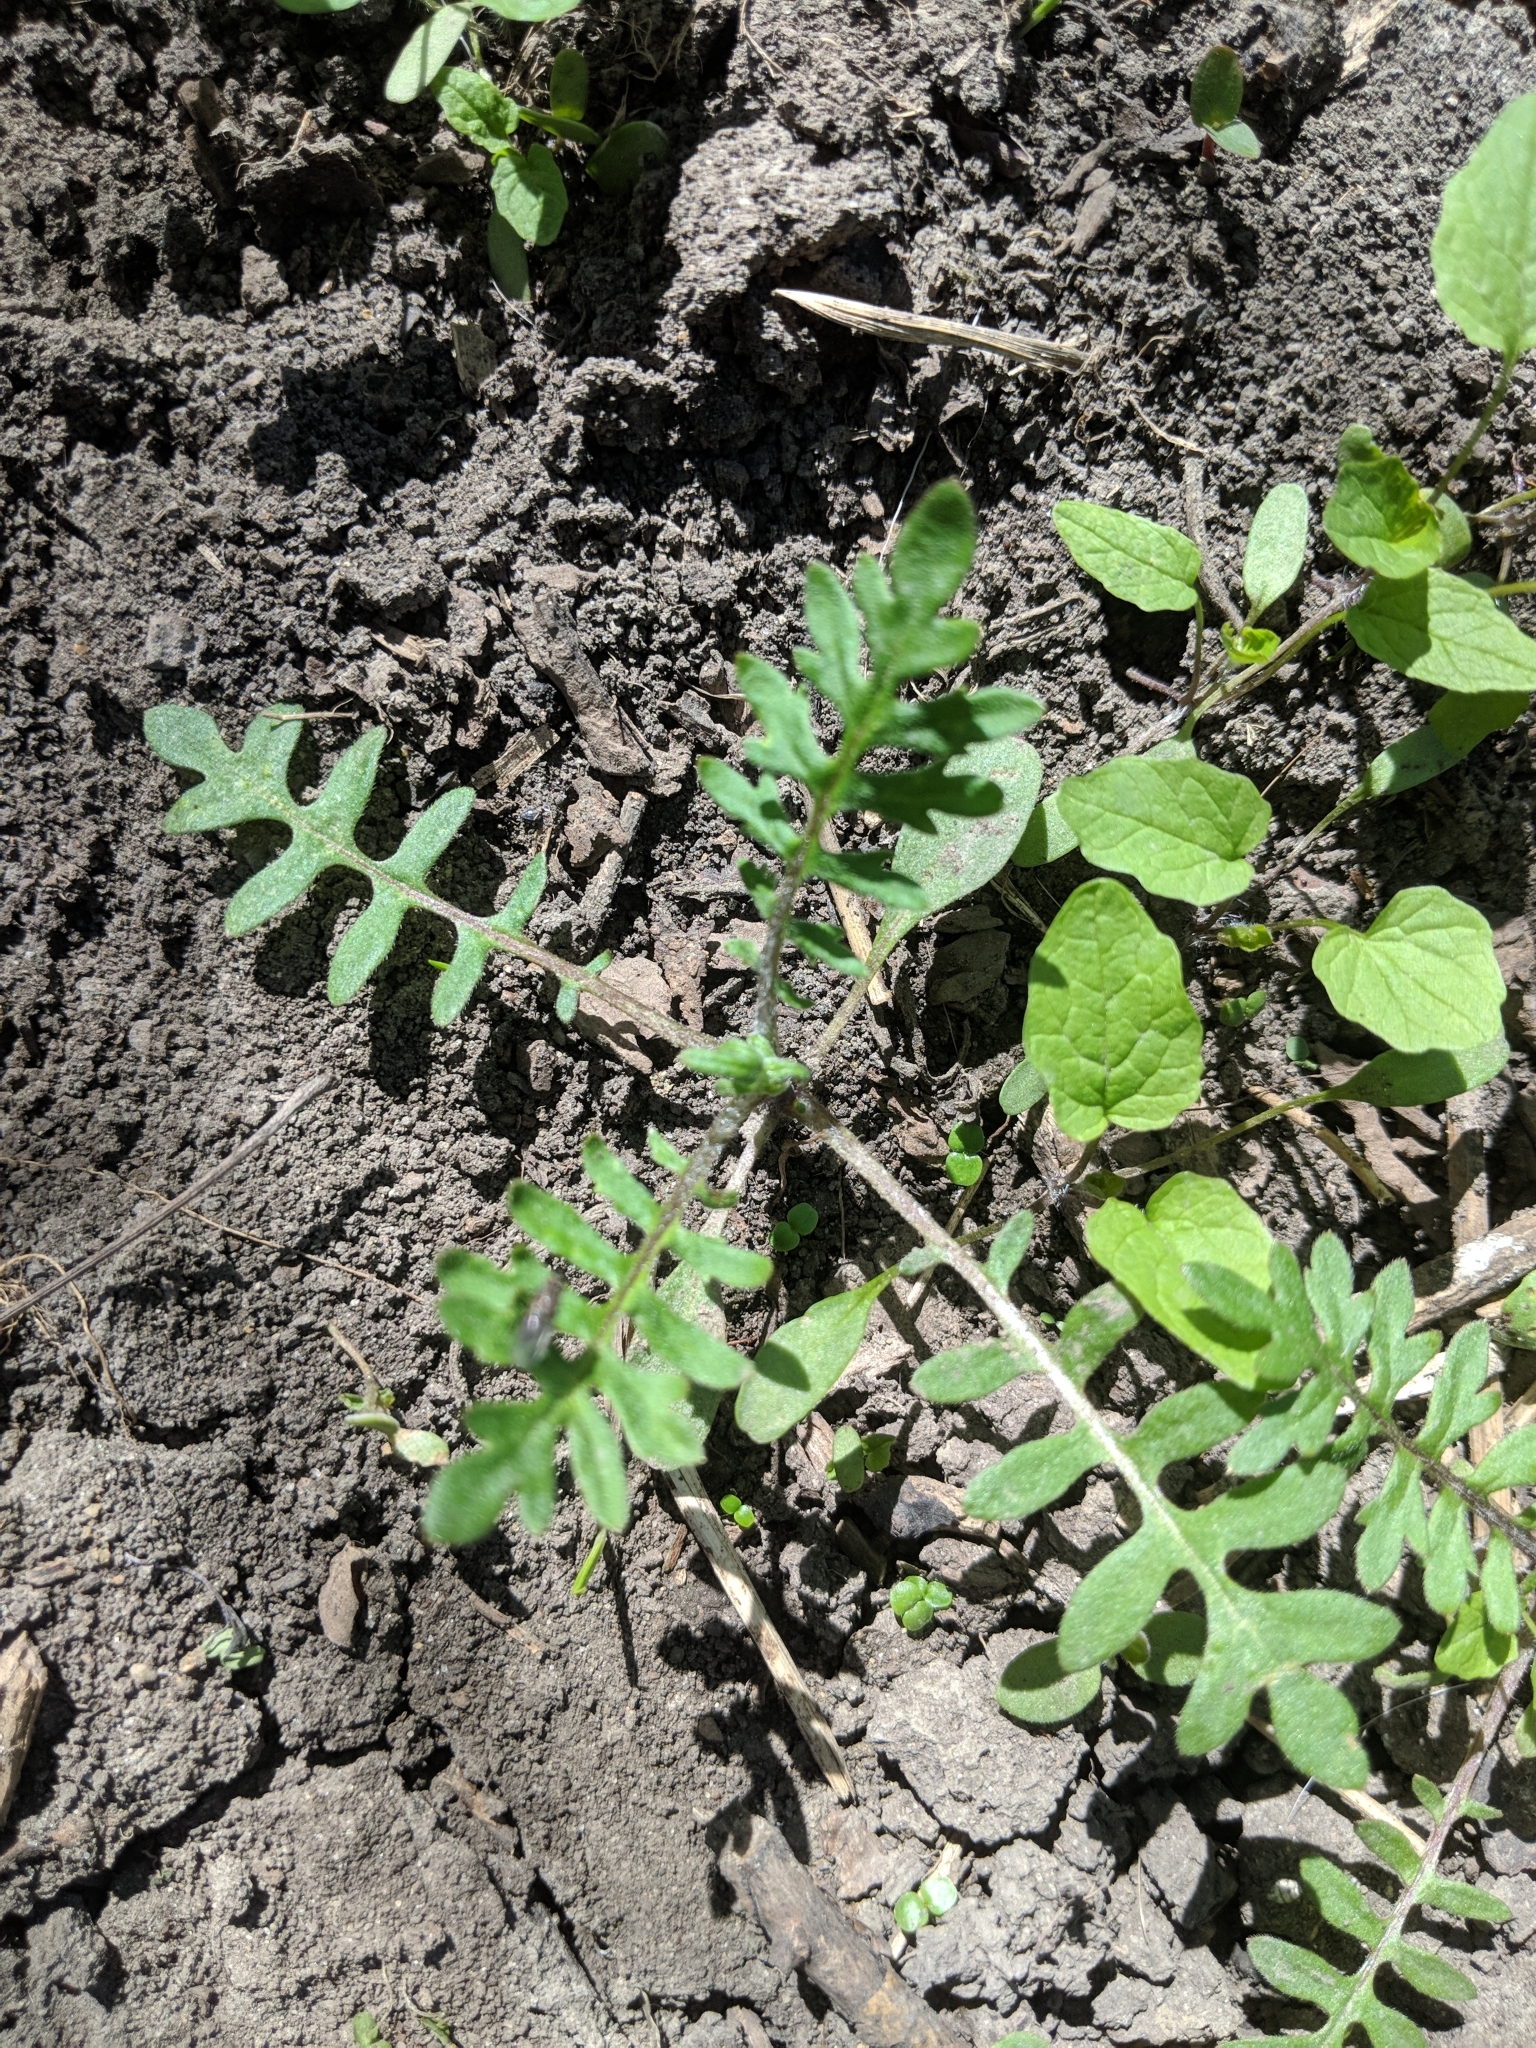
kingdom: Plantae
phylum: Tracheophyta
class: Magnoliopsida
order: Boraginales
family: Hydrophyllaceae
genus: Ellisia
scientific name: Ellisia nyctelea
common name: Aunt lucy
